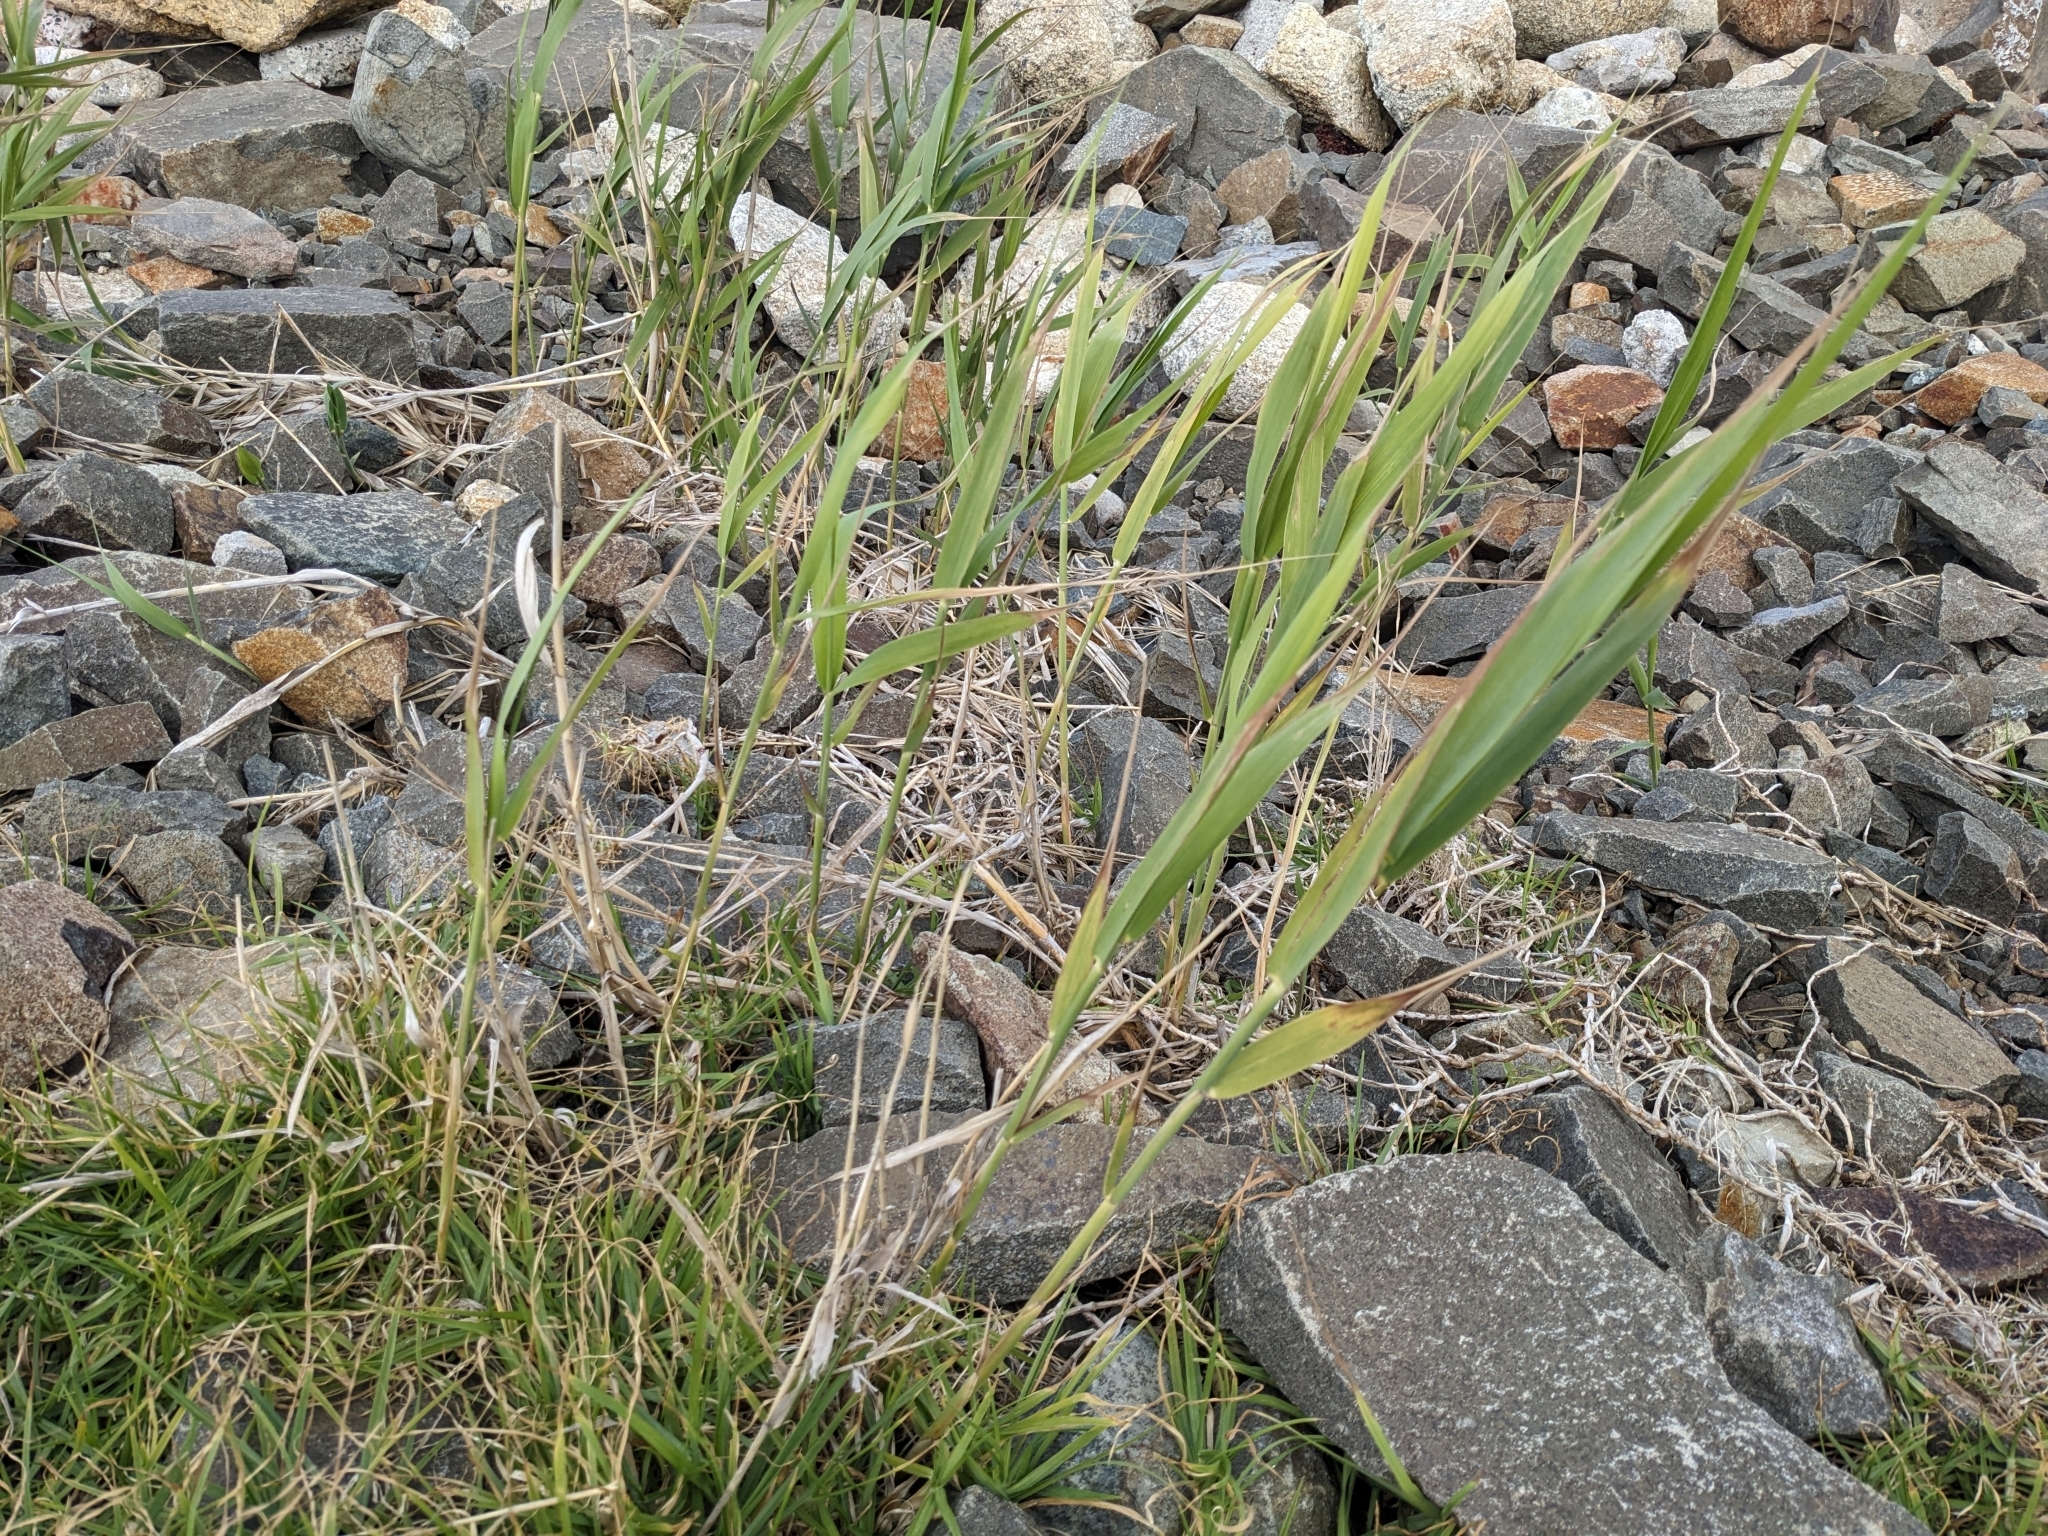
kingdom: Plantae
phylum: Tracheophyta
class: Liliopsida
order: Poales
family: Poaceae
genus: Phragmites
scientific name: Phragmites australis
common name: Common reed
